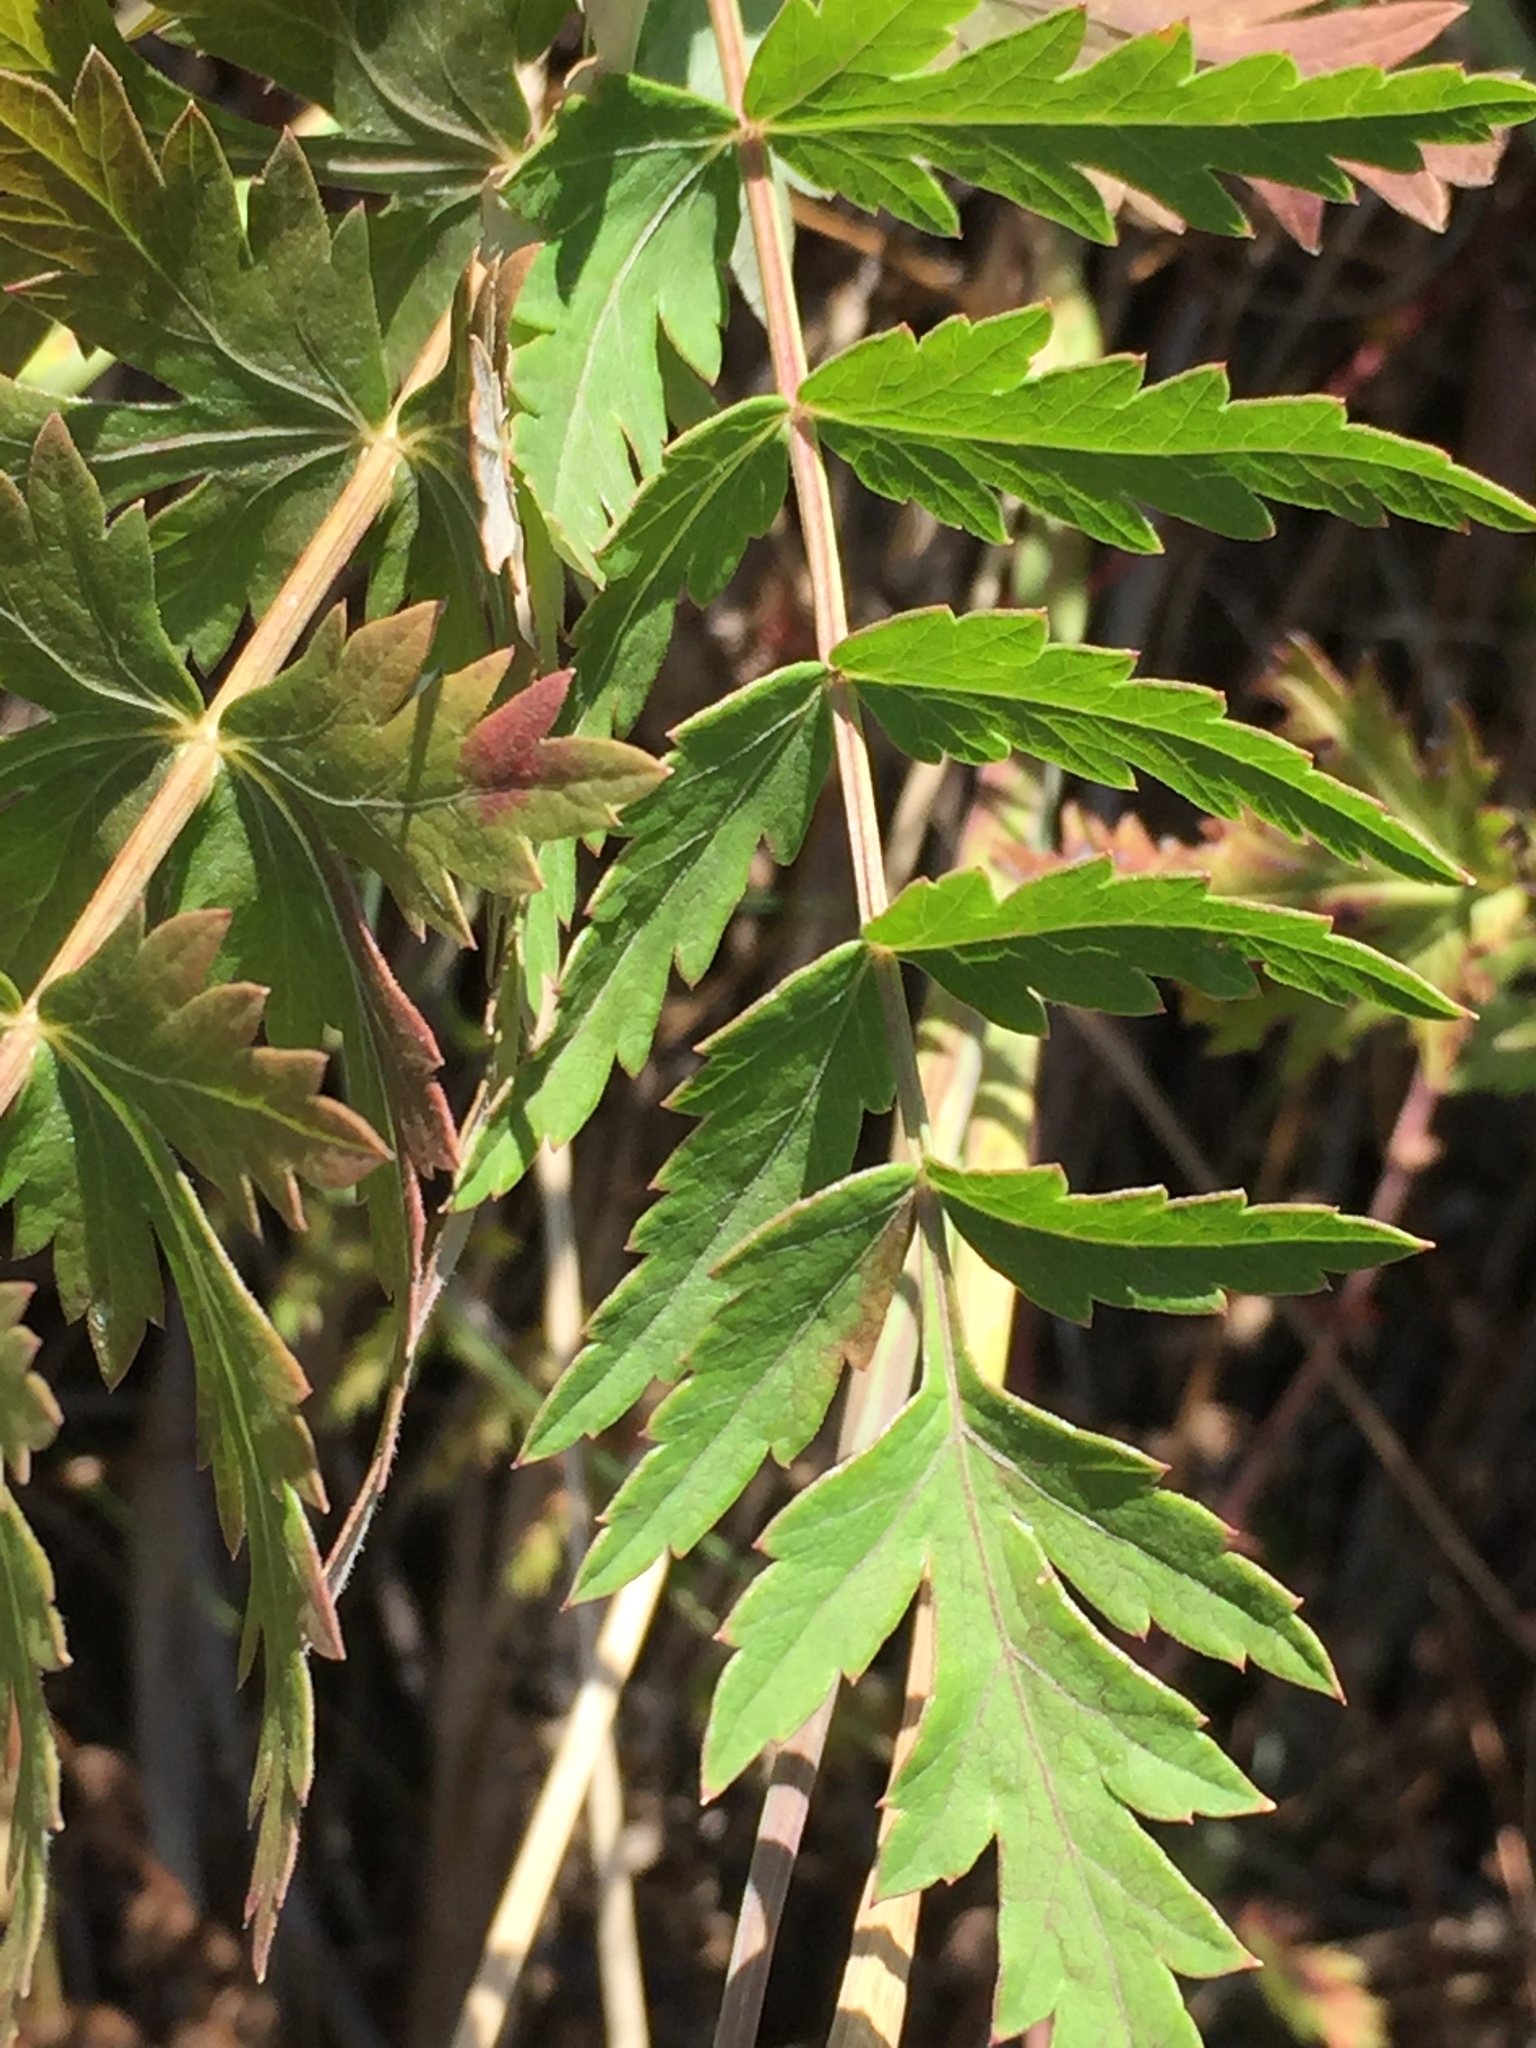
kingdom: Plantae
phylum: Tracheophyta
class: Magnoliopsida
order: Apiales
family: Apiaceae
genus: Seseli
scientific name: Seseli libanotis
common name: Mooncarrot
